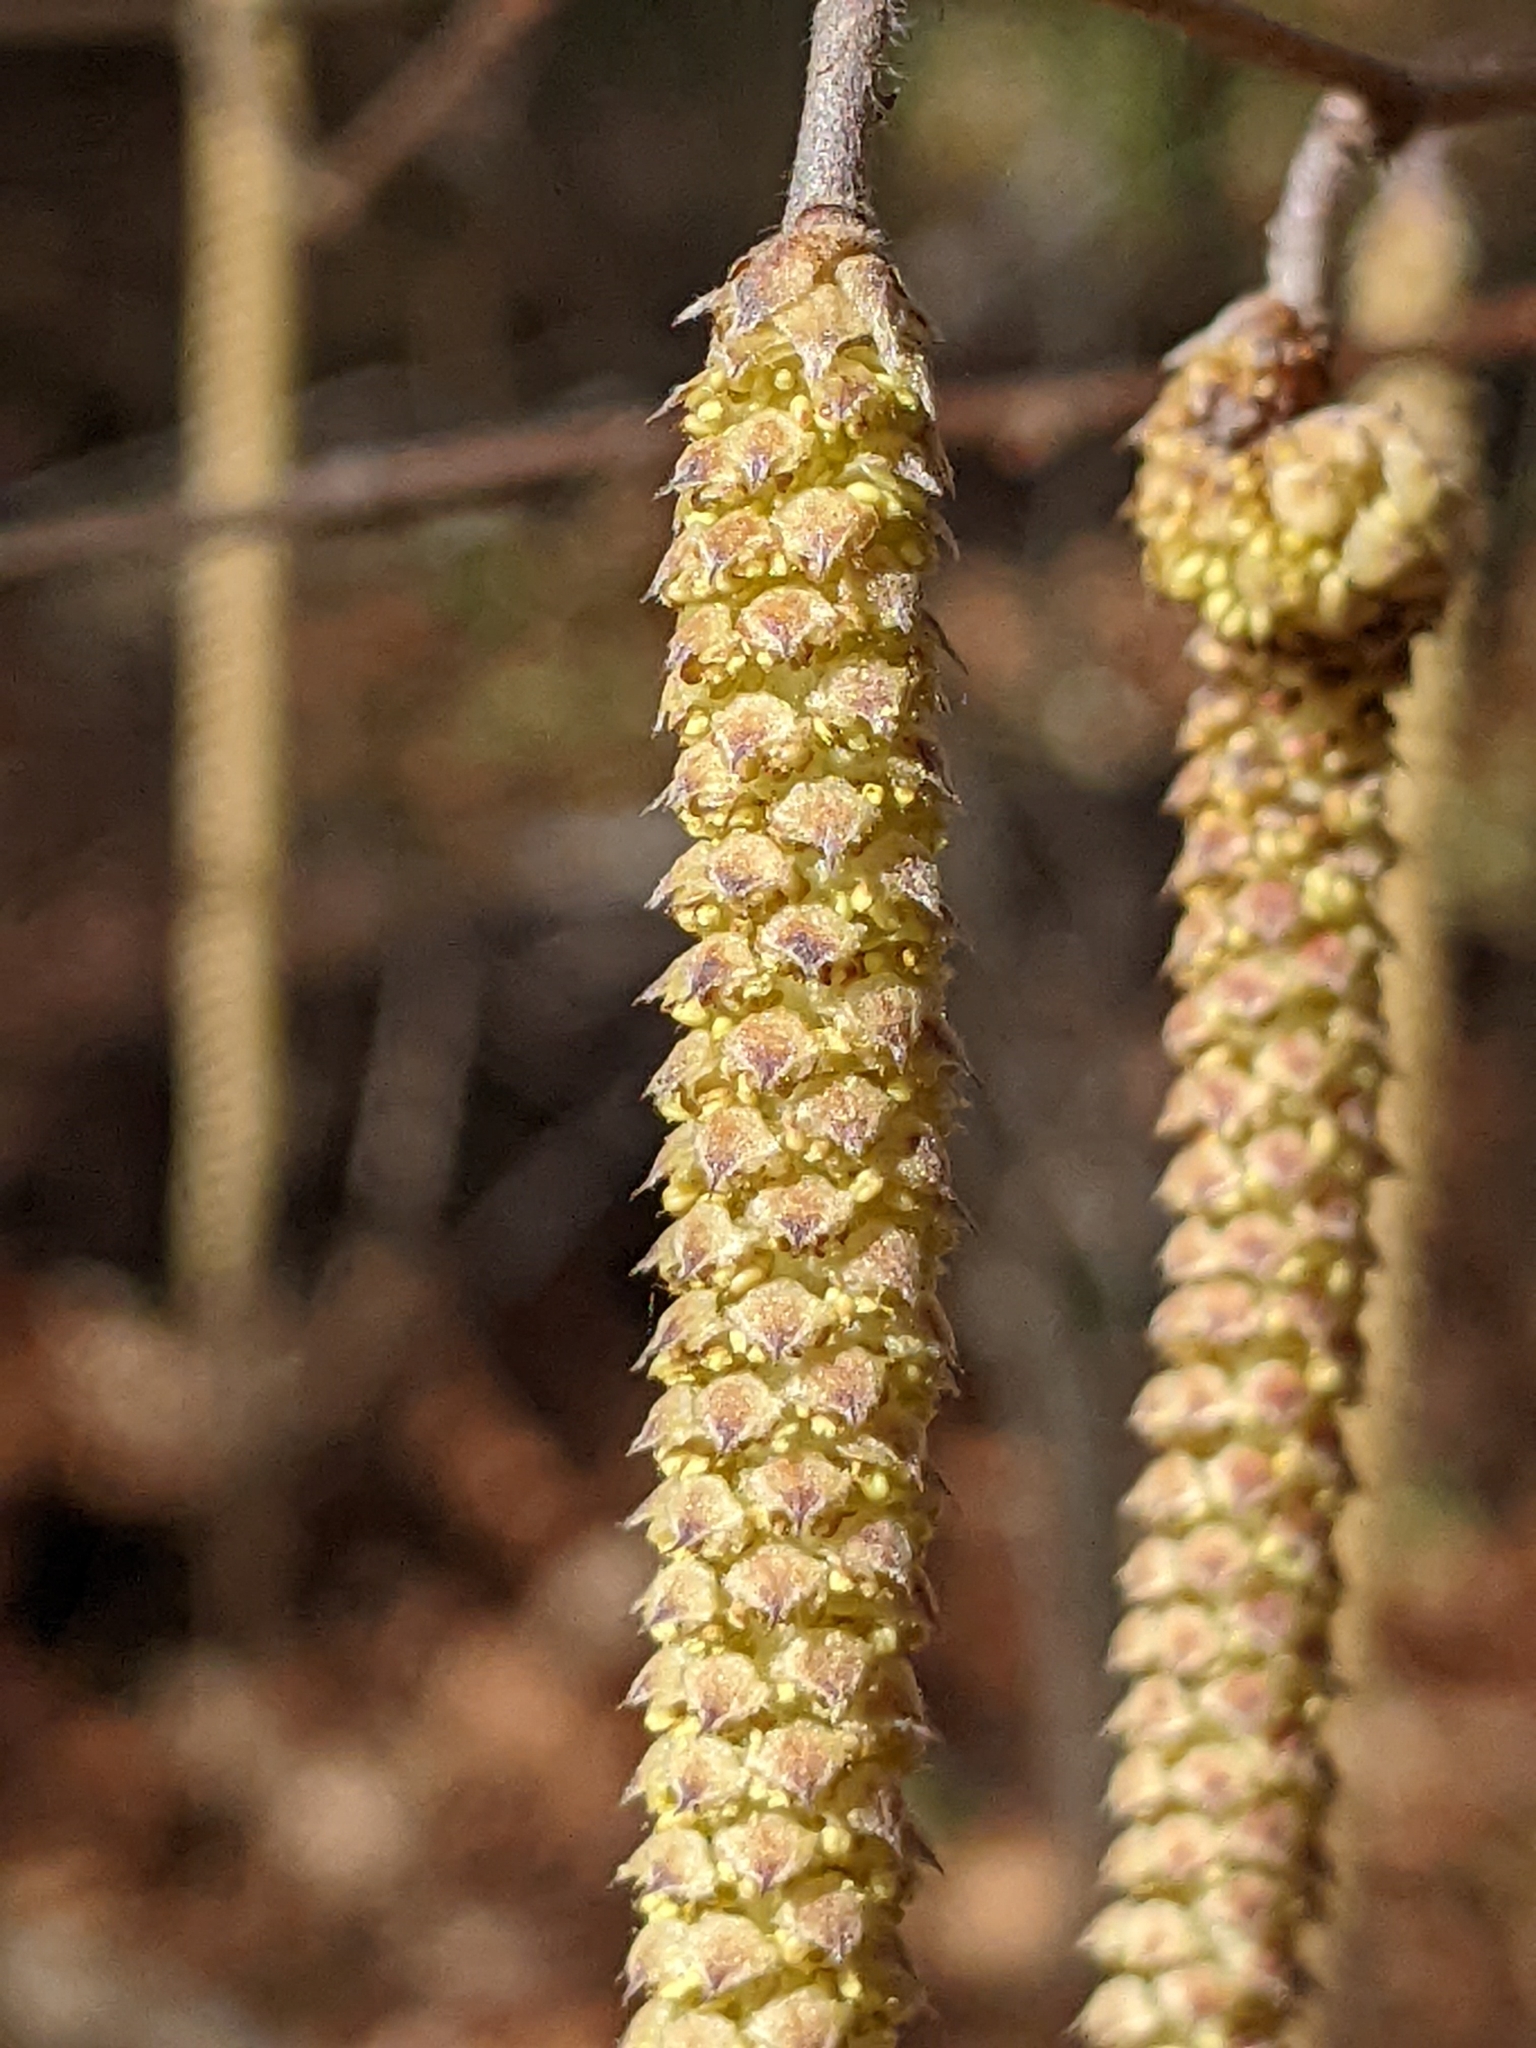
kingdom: Plantae
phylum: Tracheophyta
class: Magnoliopsida
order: Fagales
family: Betulaceae
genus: Corylus
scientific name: Corylus americana
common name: American hazel
